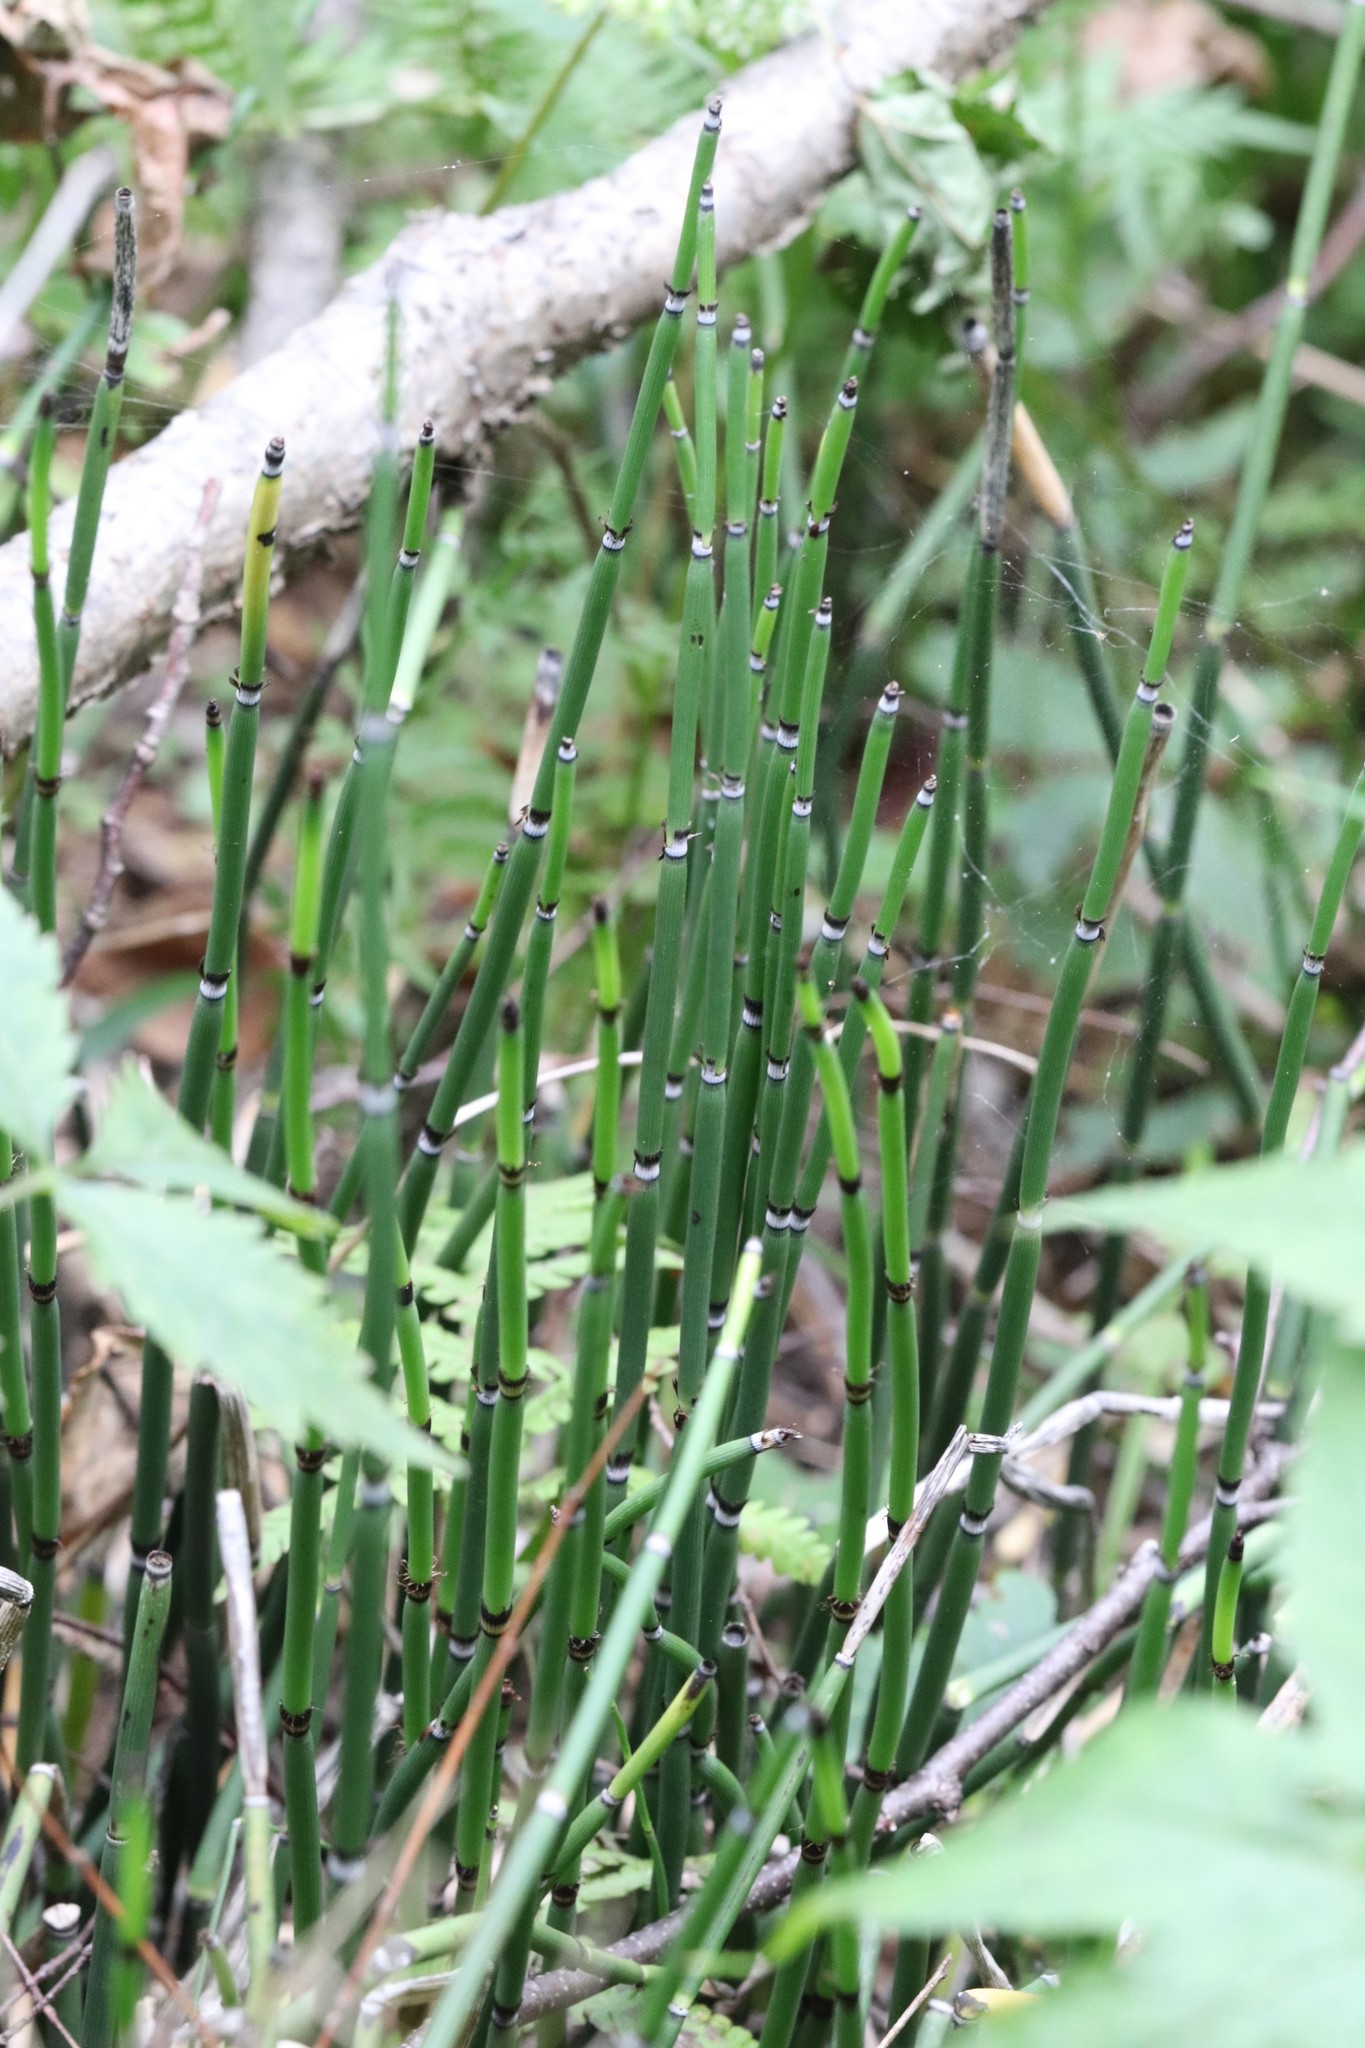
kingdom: Plantae
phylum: Tracheophyta
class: Polypodiopsida
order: Equisetales
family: Equisetaceae
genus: Equisetum
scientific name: Equisetum hyemale
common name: Rough horsetail
